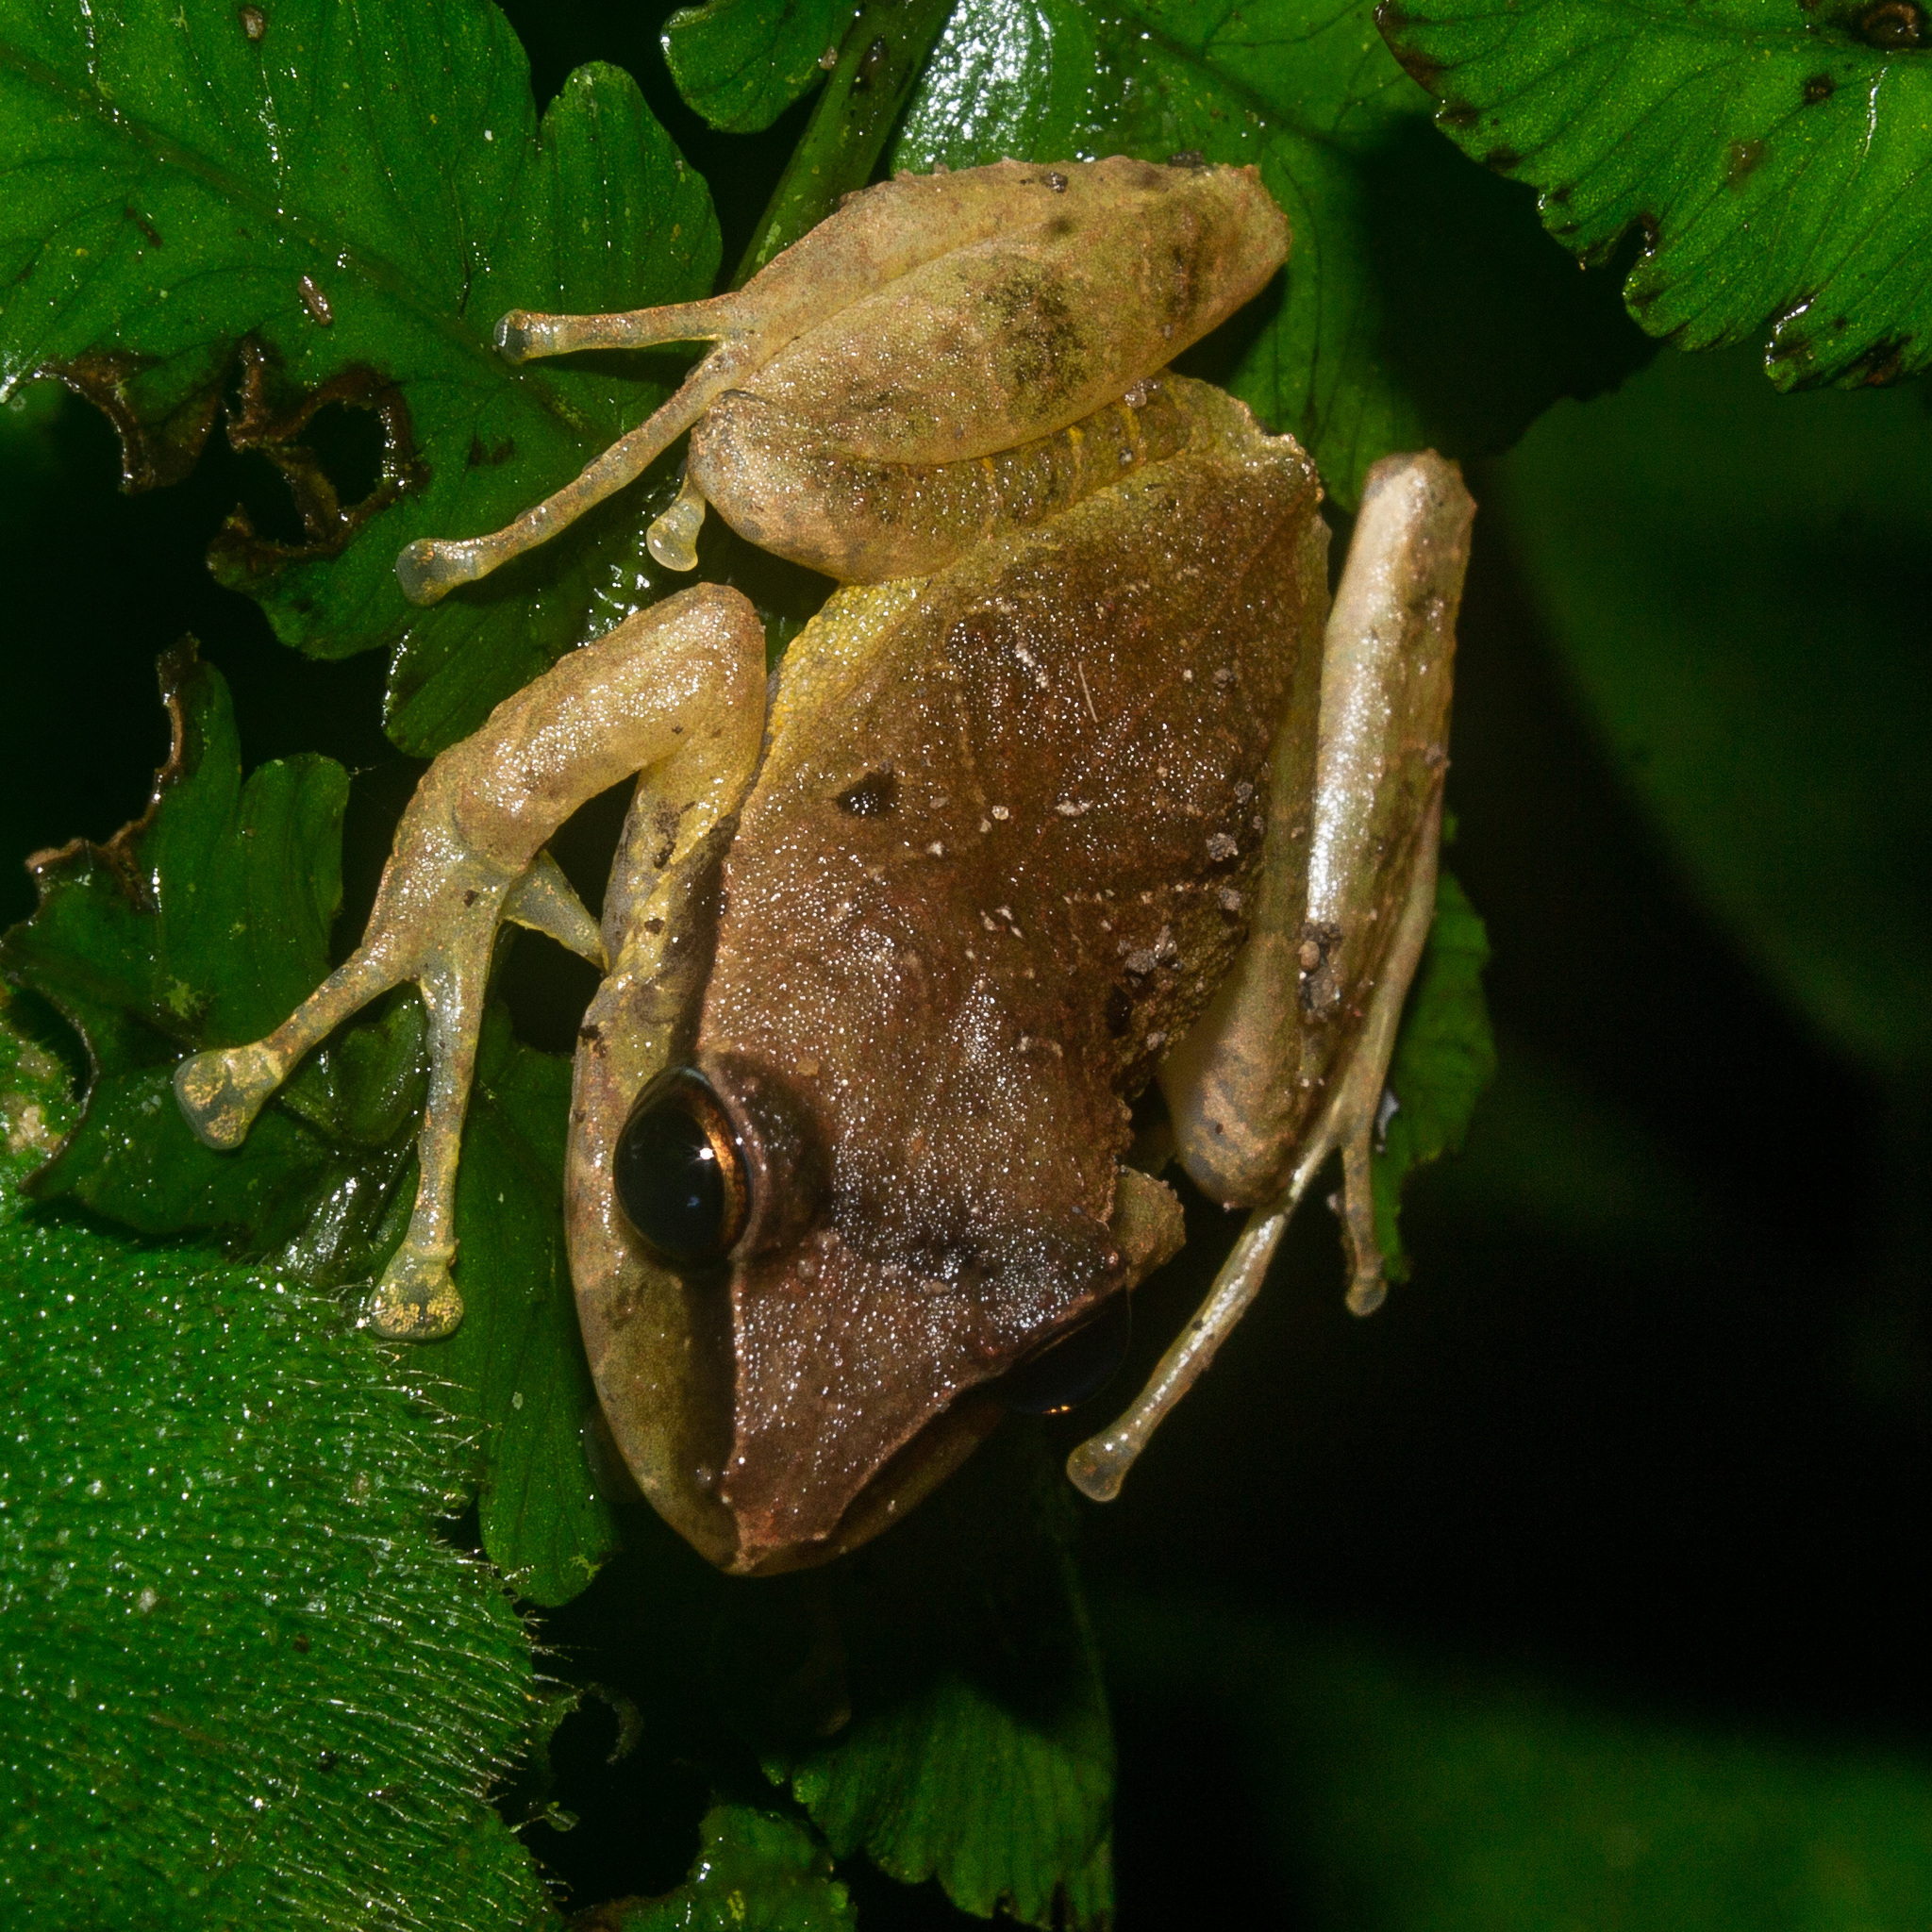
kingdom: Animalia
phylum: Chordata
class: Amphibia
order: Anura
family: Craugastoridae
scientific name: Craugastoridae
